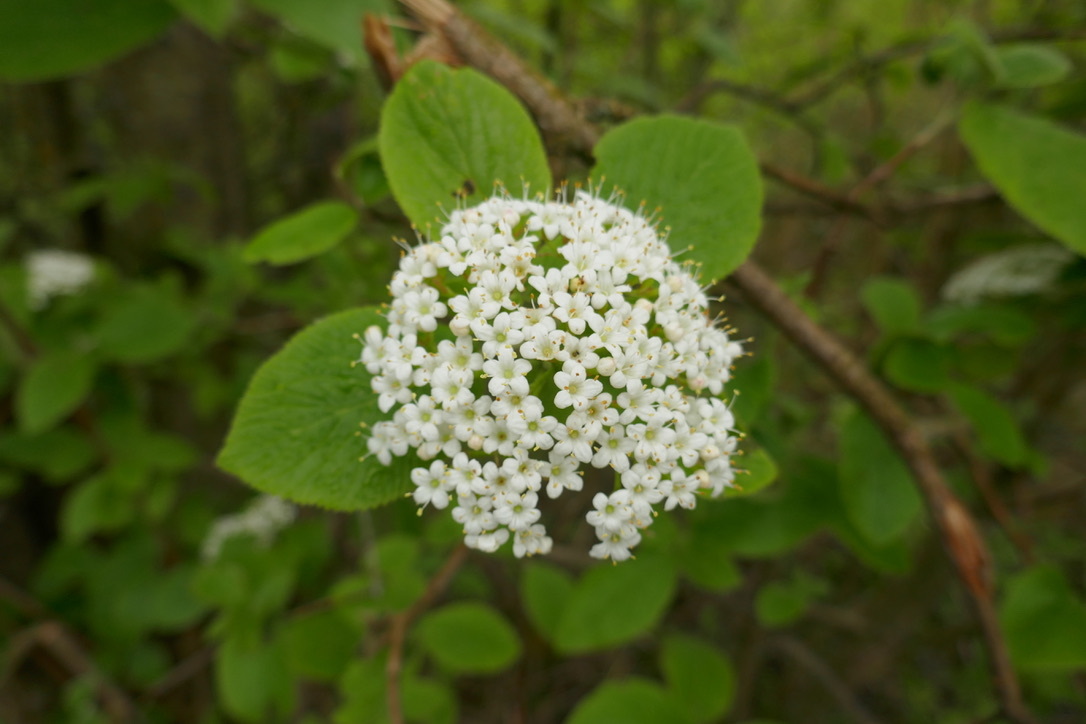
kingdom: Plantae
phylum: Tracheophyta
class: Magnoliopsida
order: Dipsacales
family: Viburnaceae
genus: Viburnum
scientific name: Viburnum lantana
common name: Wayfaring tree
